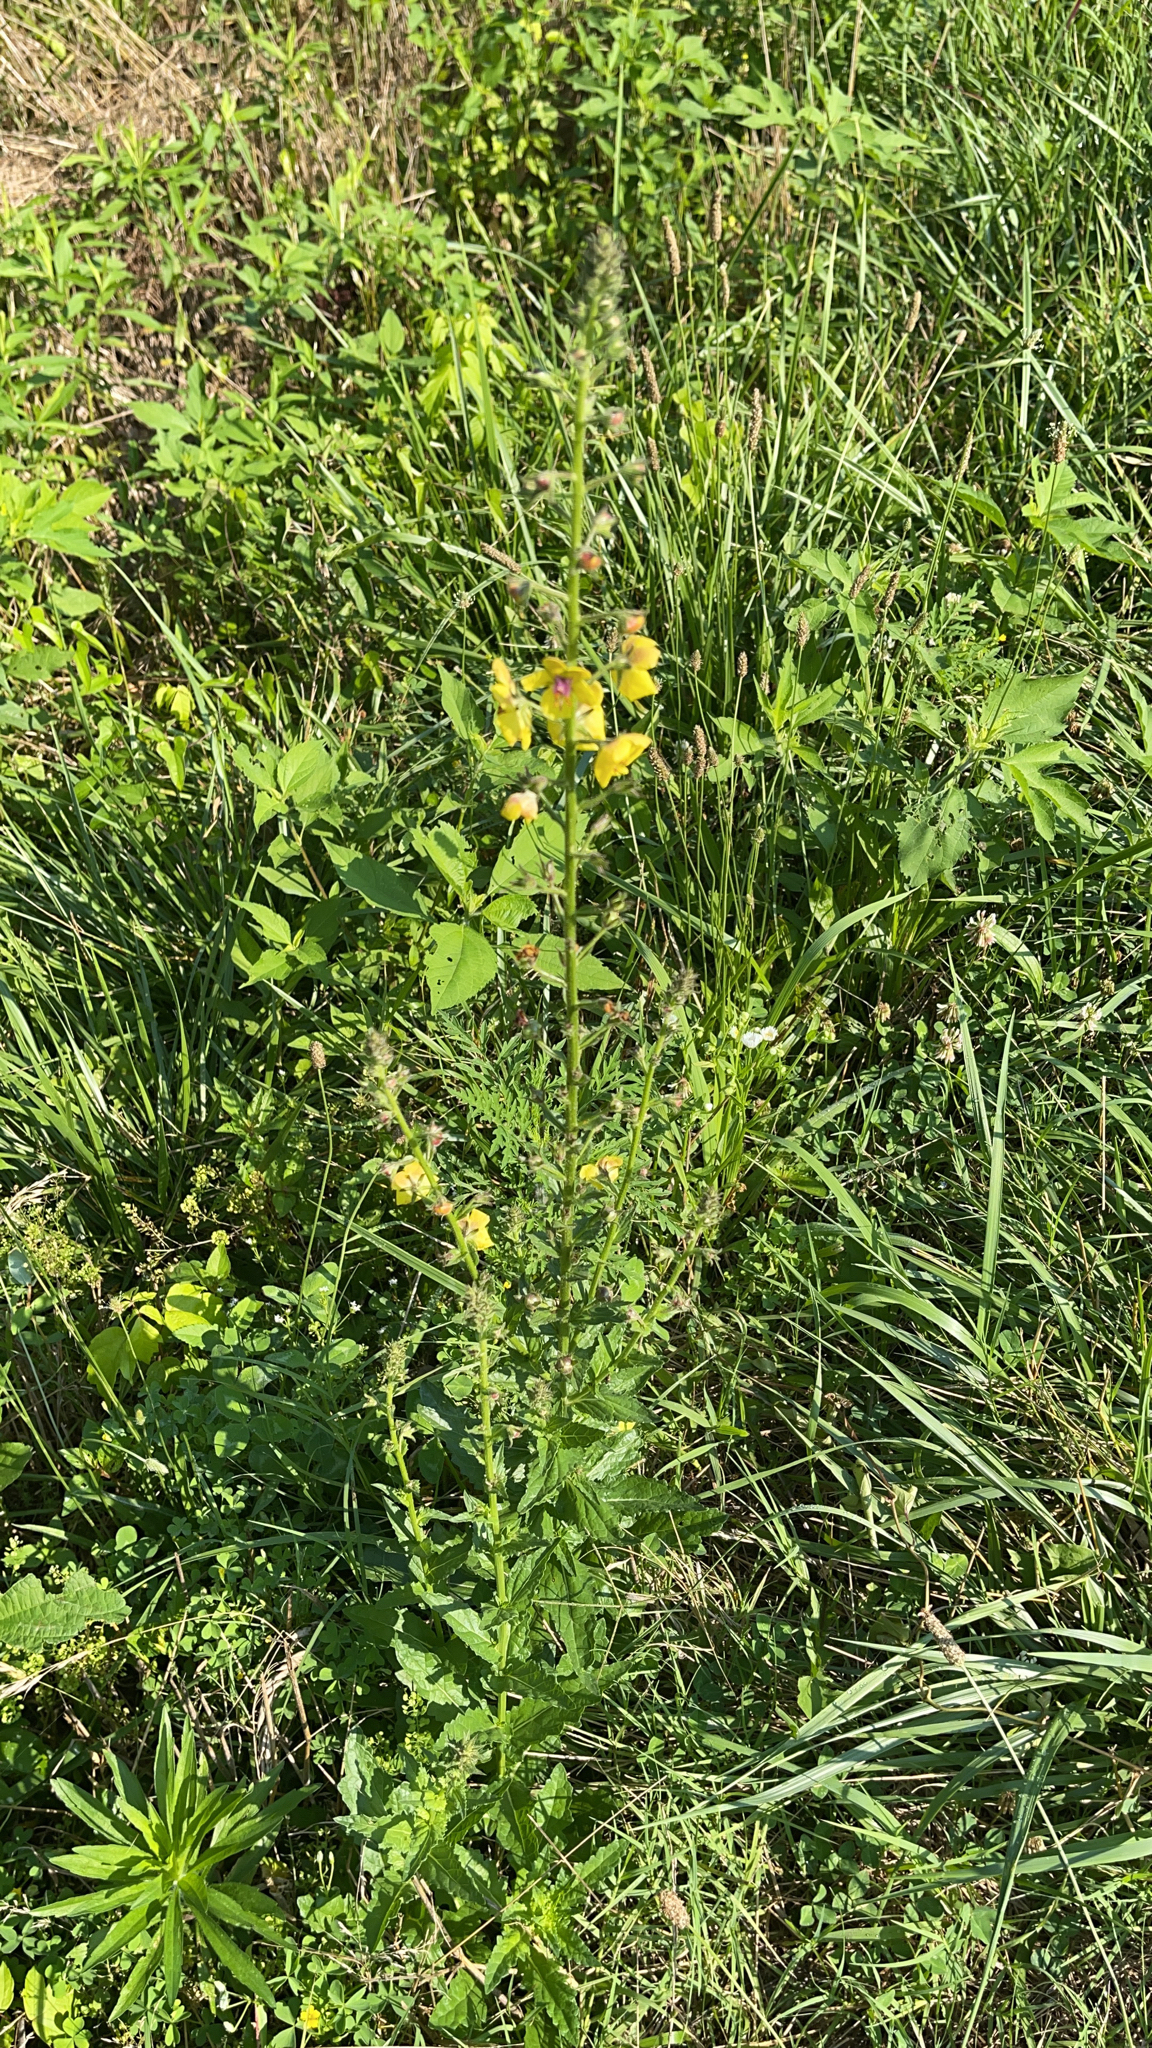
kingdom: Plantae
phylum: Tracheophyta
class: Magnoliopsida
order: Lamiales
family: Scrophulariaceae
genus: Verbascum
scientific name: Verbascum blattaria
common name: Moth mullein
